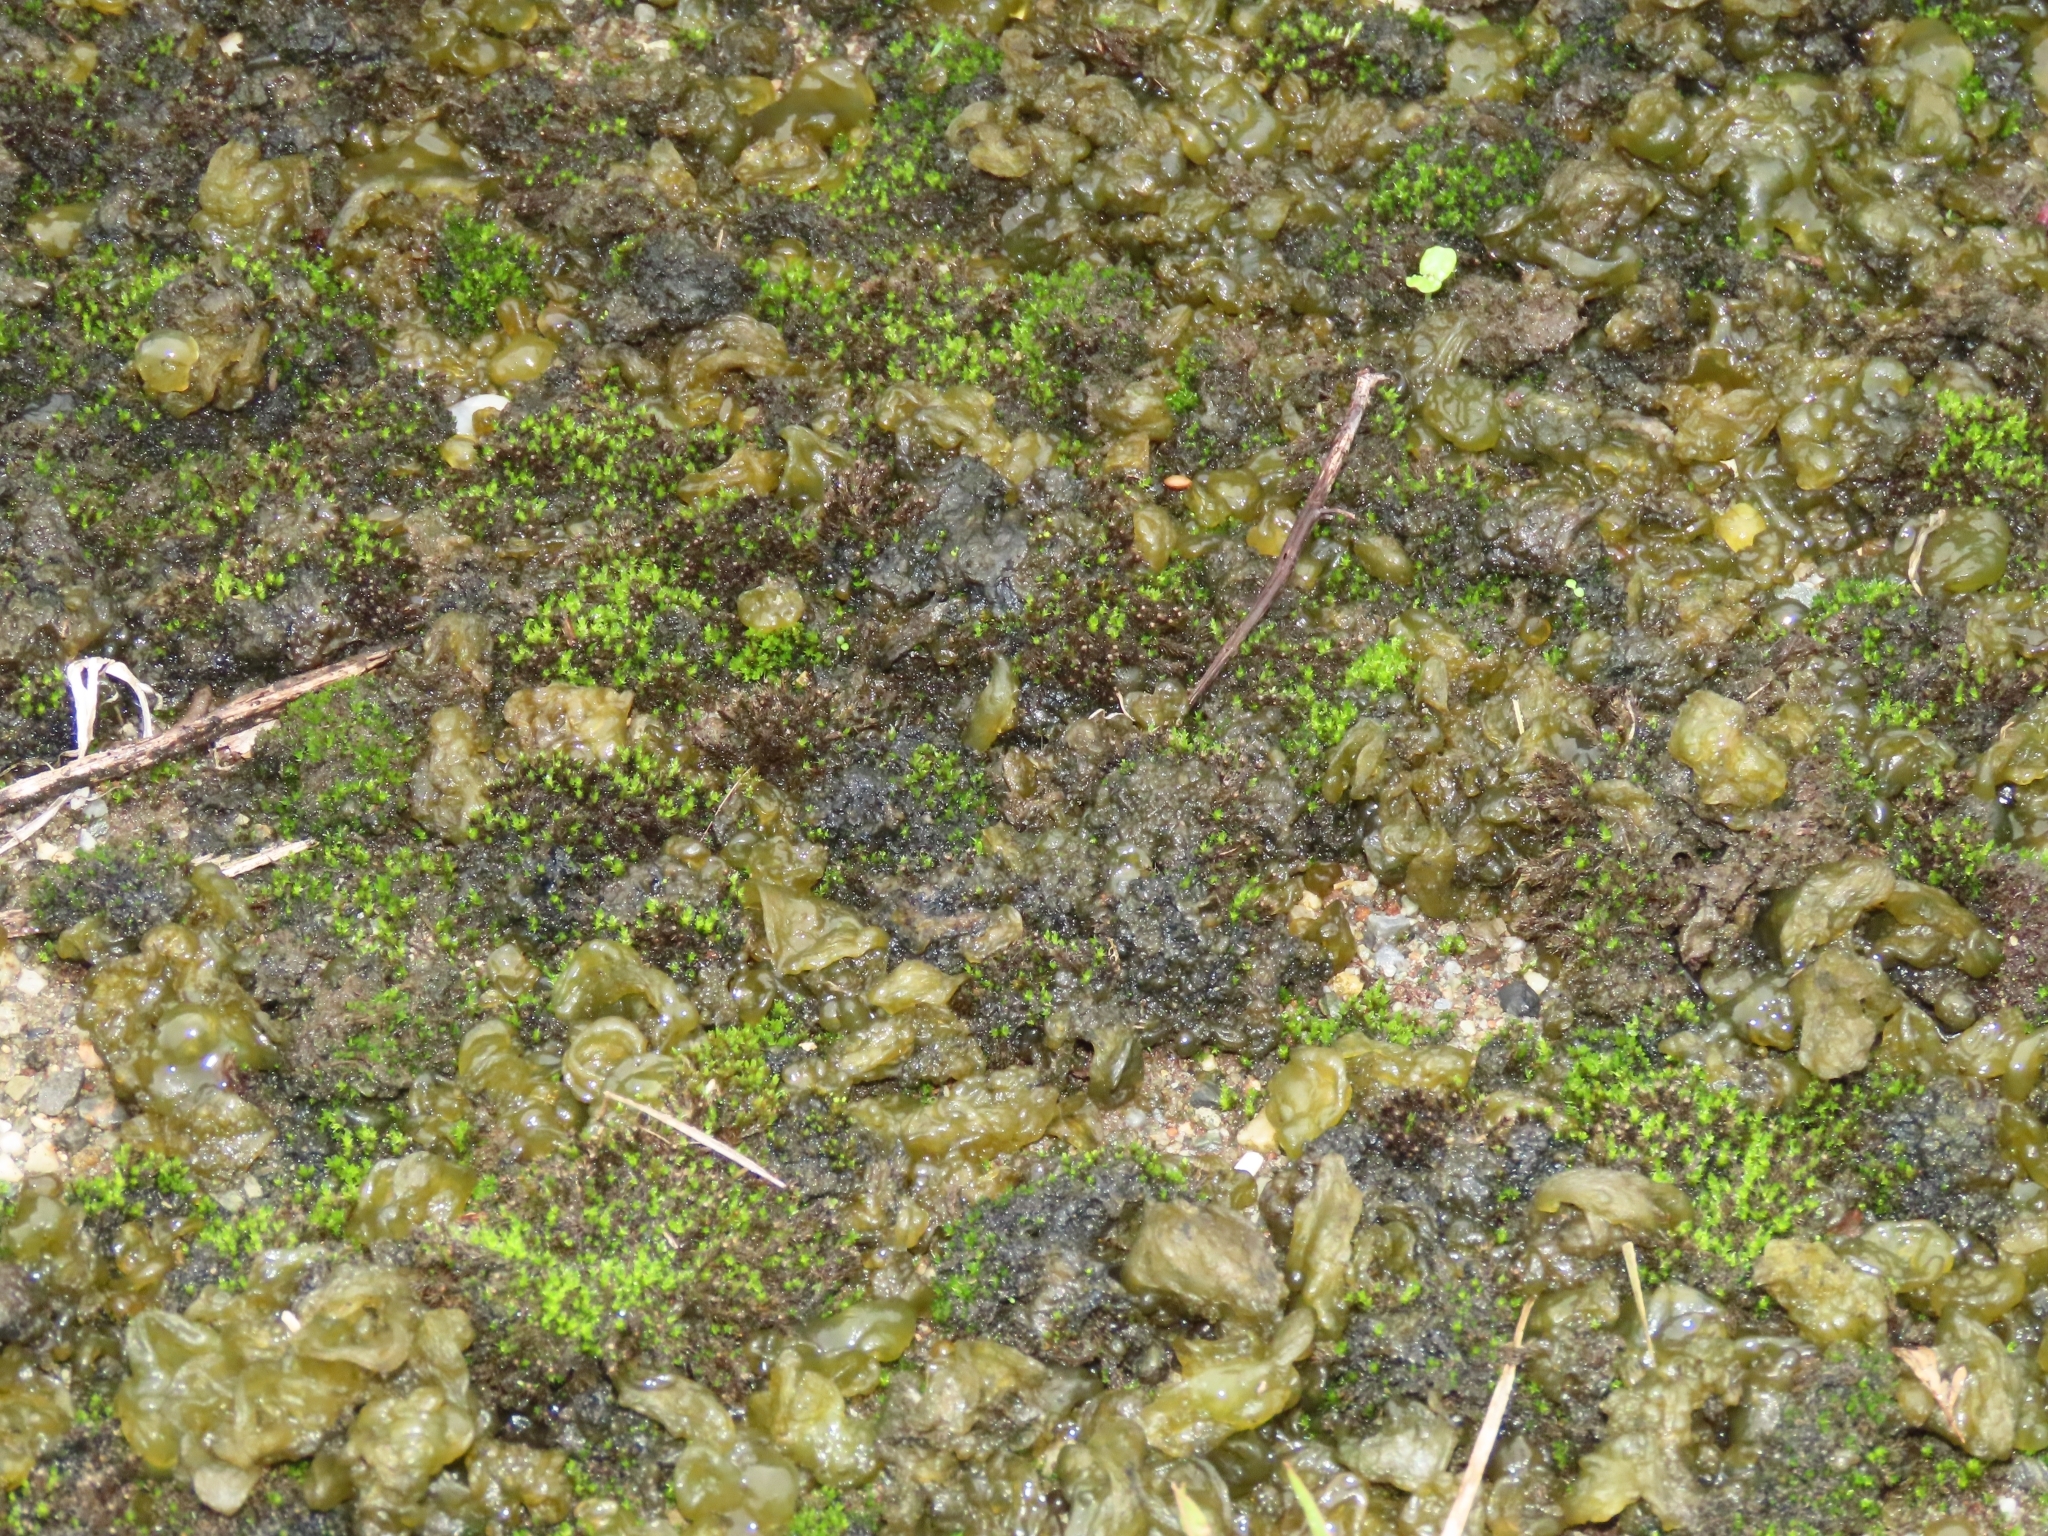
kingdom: Bacteria
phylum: Cyanobacteria
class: Cyanobacteriia
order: Cyanobacteriales
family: Nostocaceae
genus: Nostoc
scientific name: Nostoc commune
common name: Star jelly
